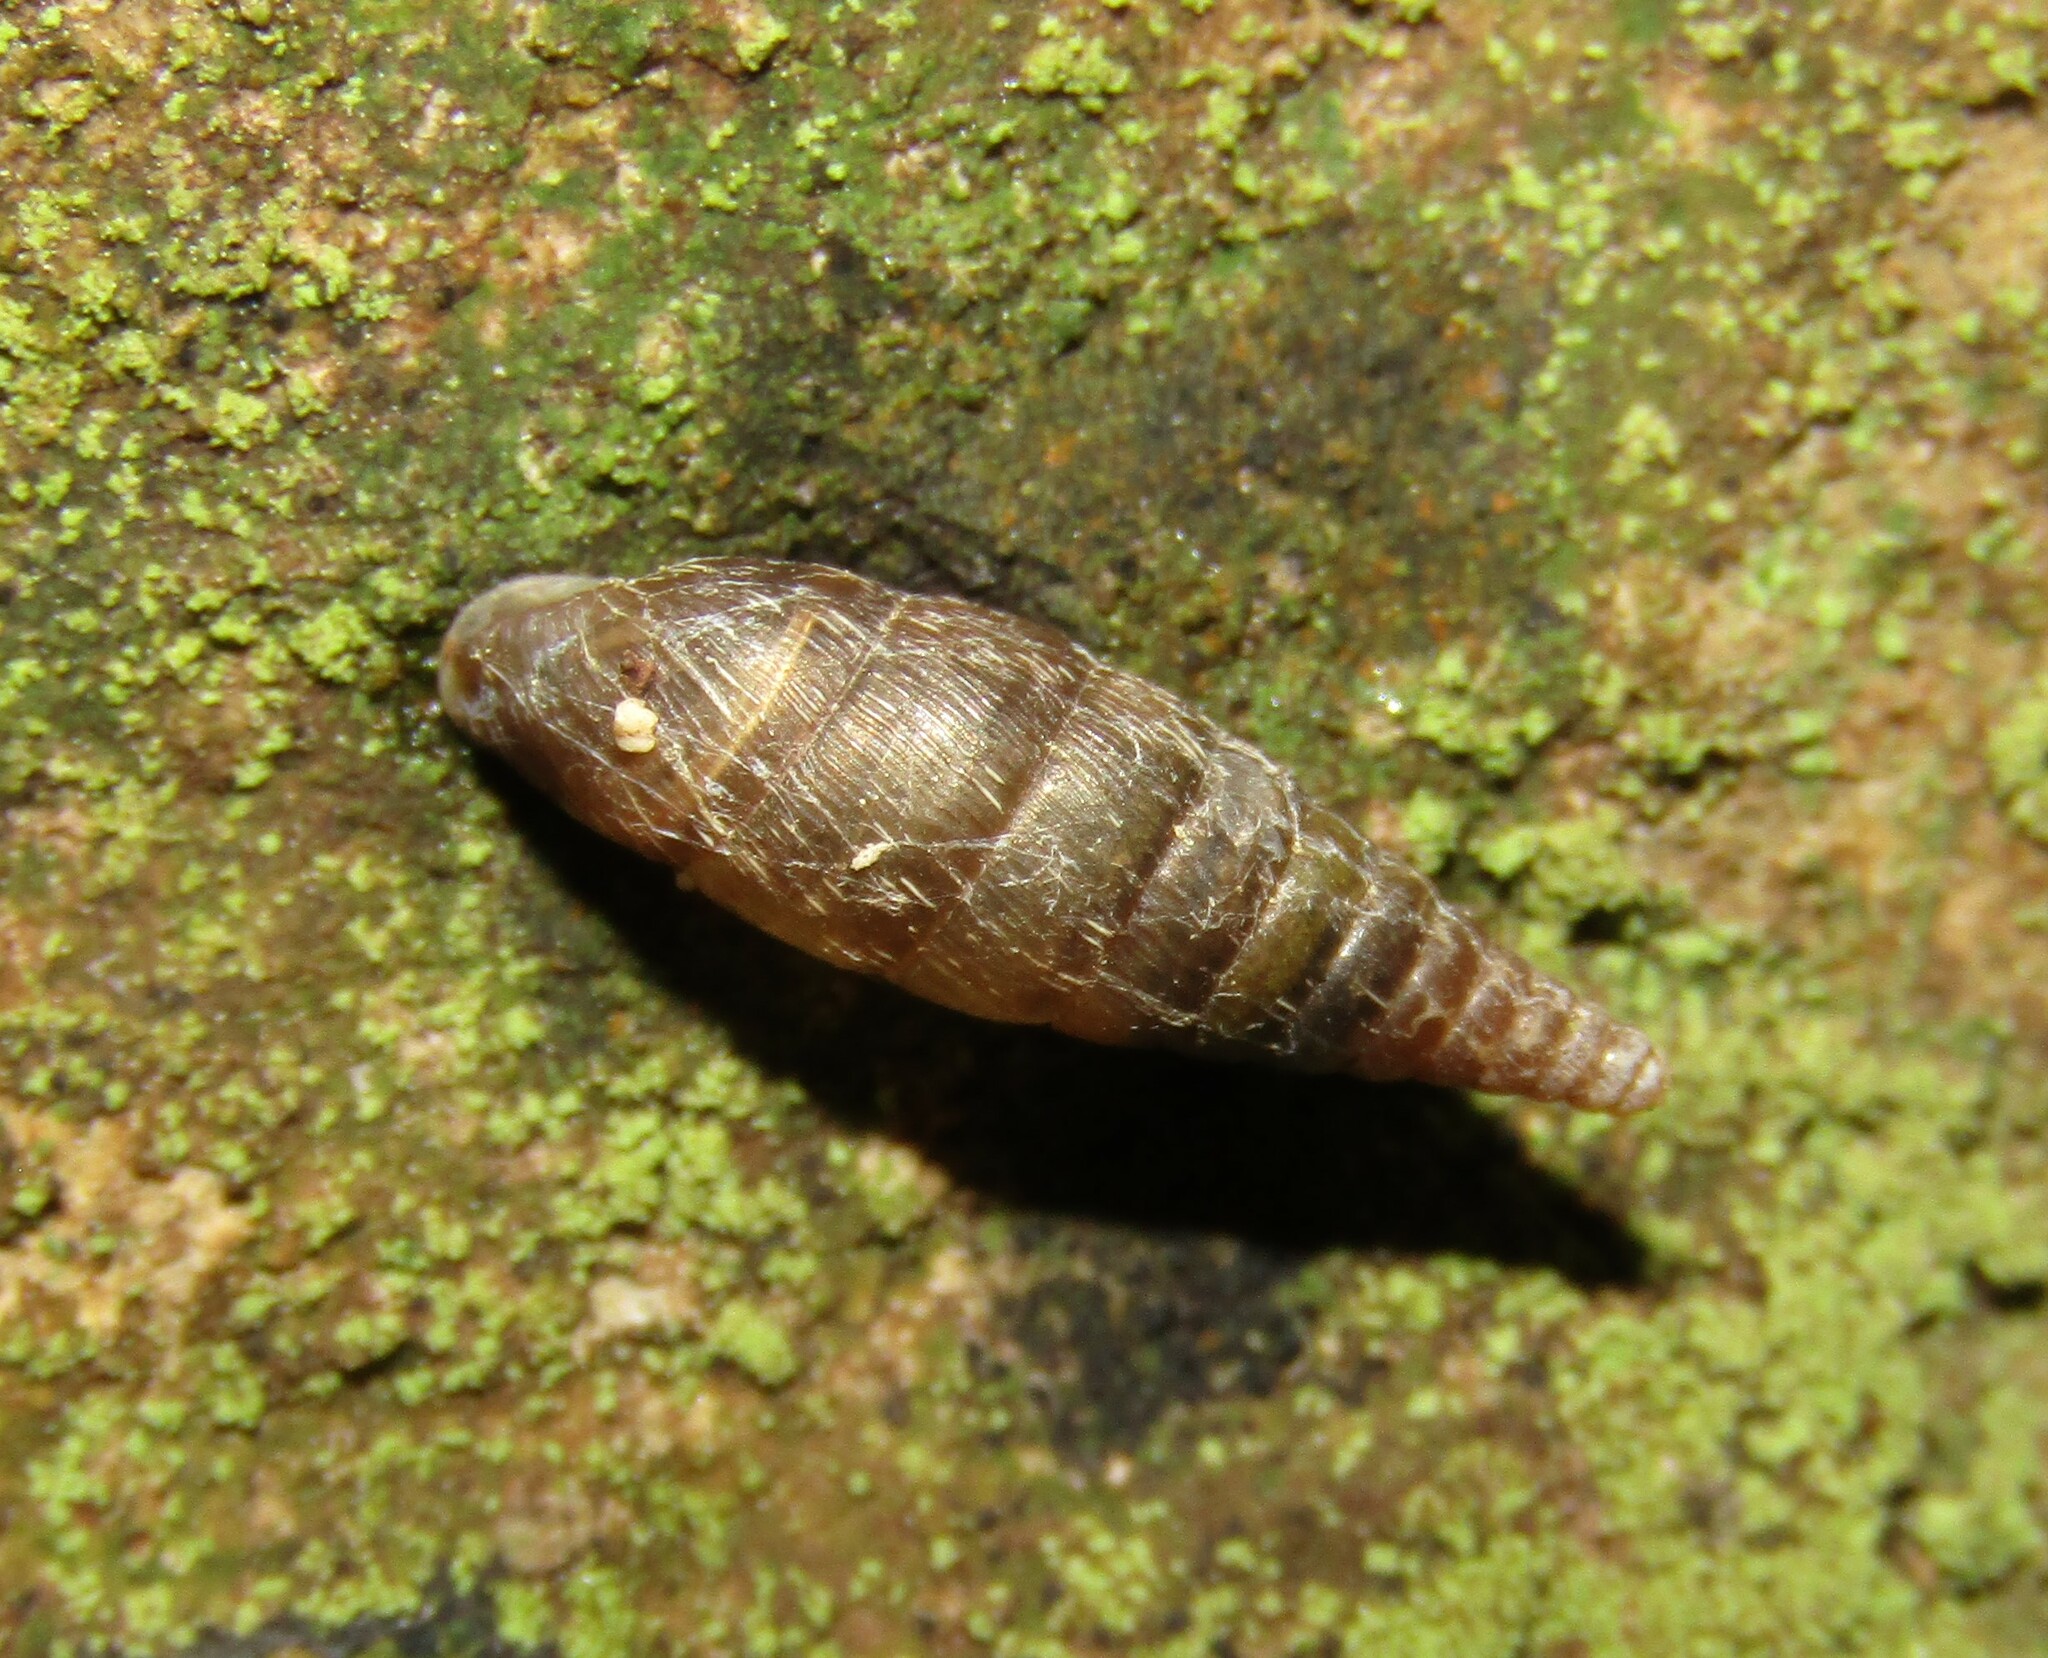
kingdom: Animalia
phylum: Mollusca
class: Gastropoda
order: Stylommatophora
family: Clausiliidae
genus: Elia
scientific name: Elia novorossica
